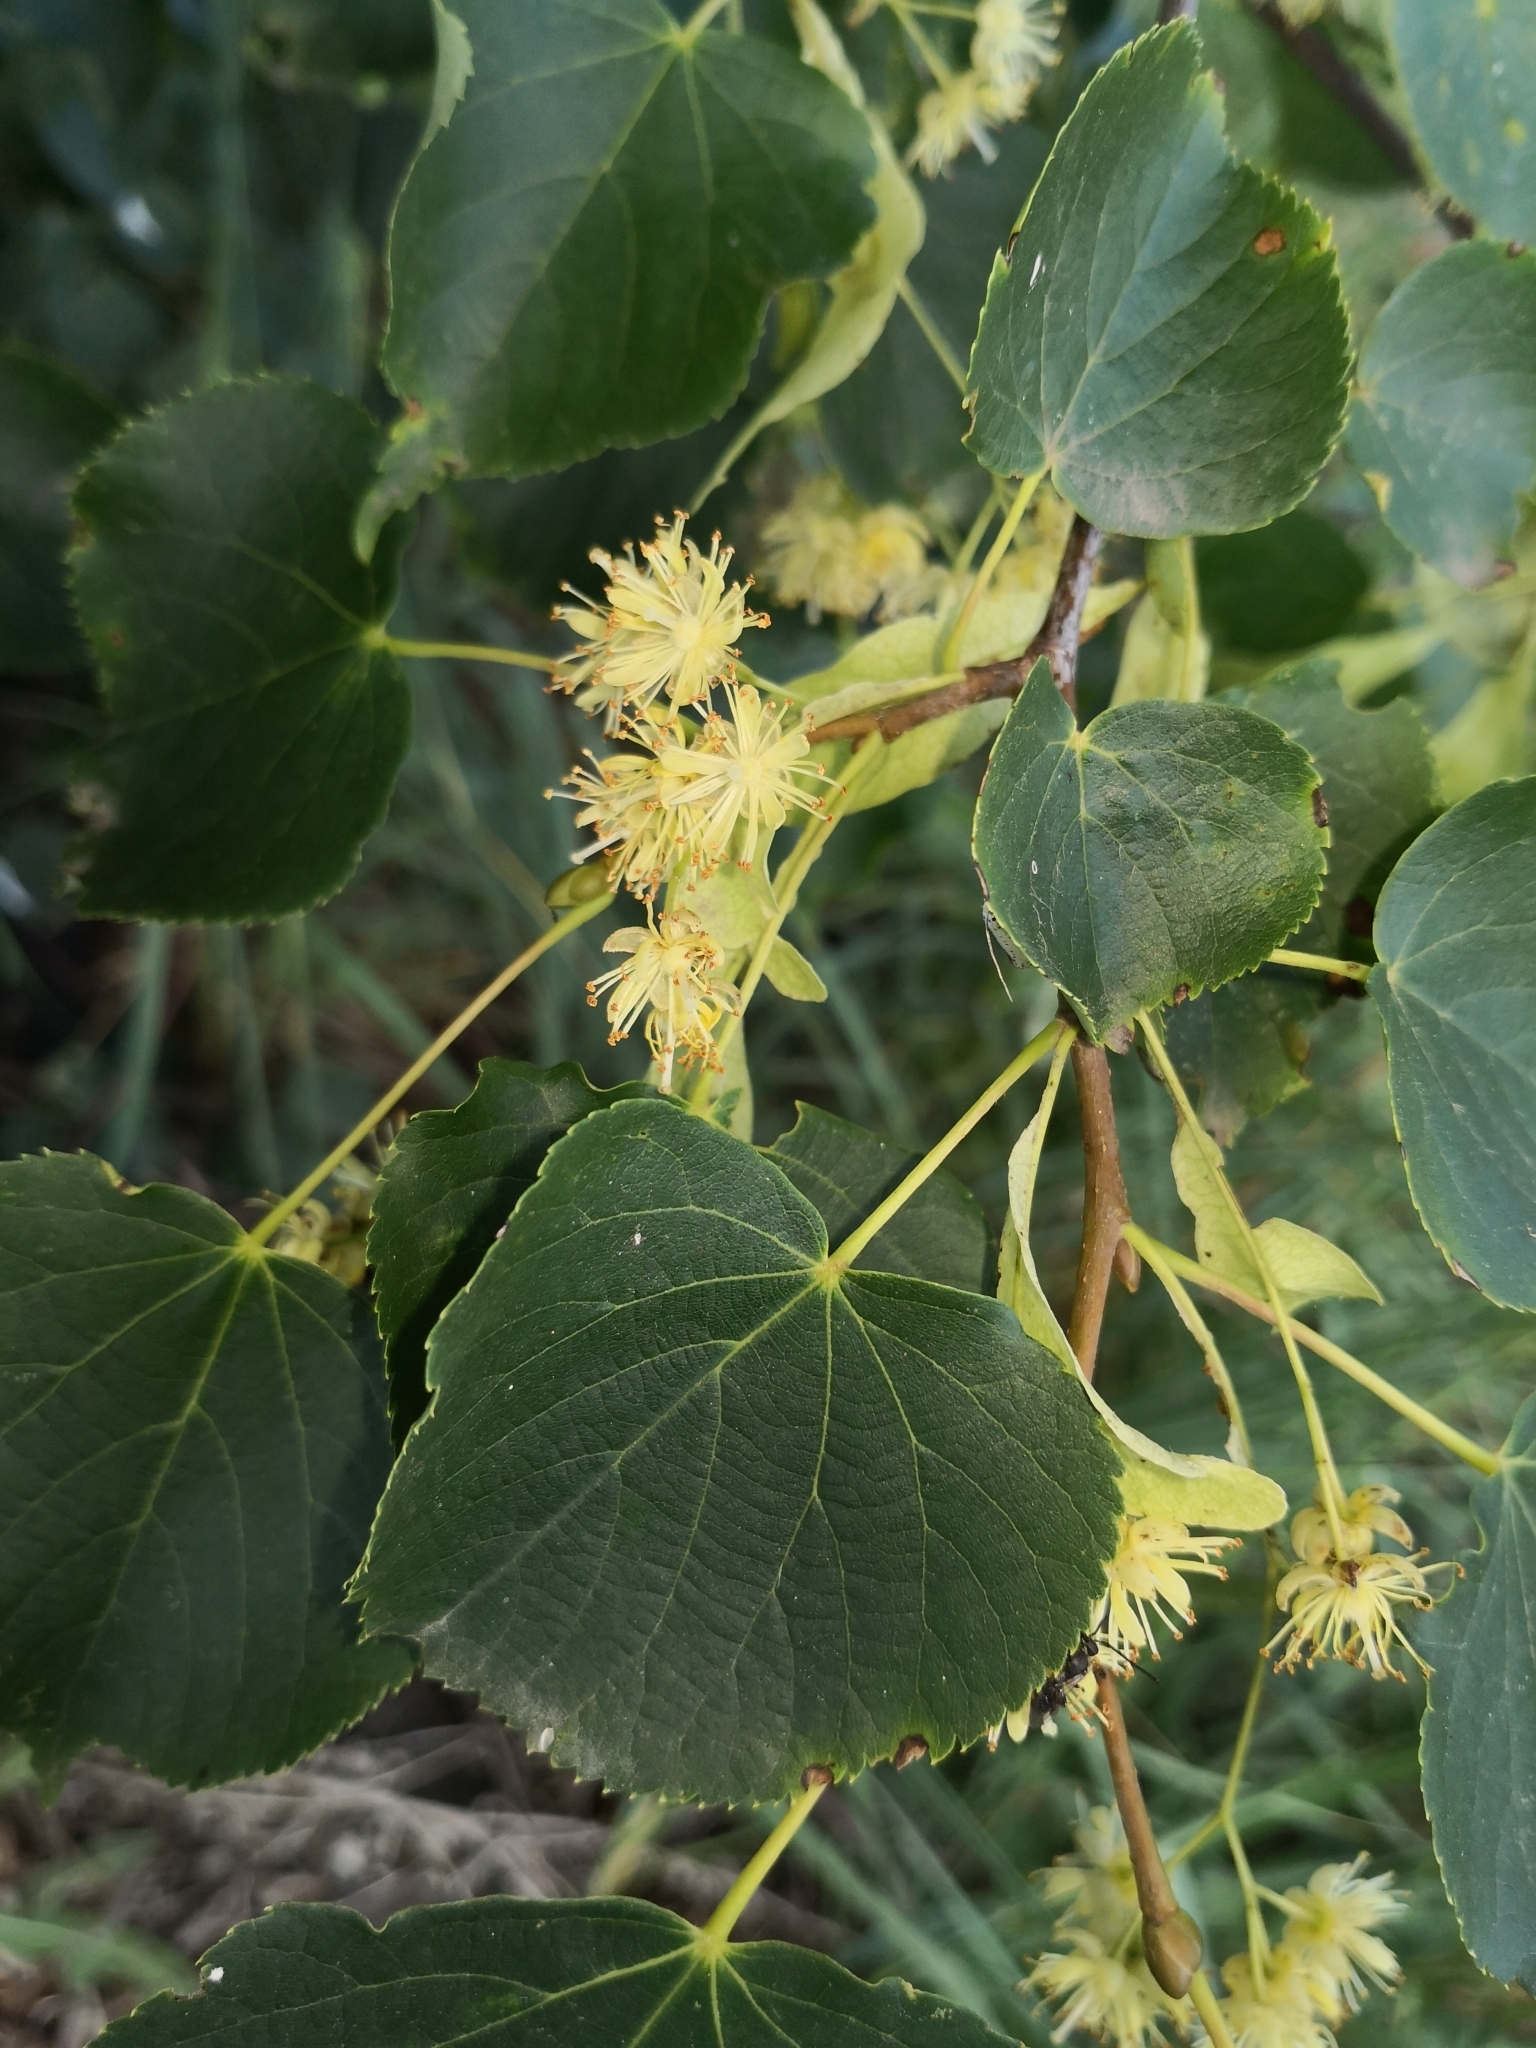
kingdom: Plantae
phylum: Tracheophyta
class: Magnoliopsida
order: Malvales
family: Malvaceae
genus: Tilia
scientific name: Tilia cordata
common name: Small-leaved lime
